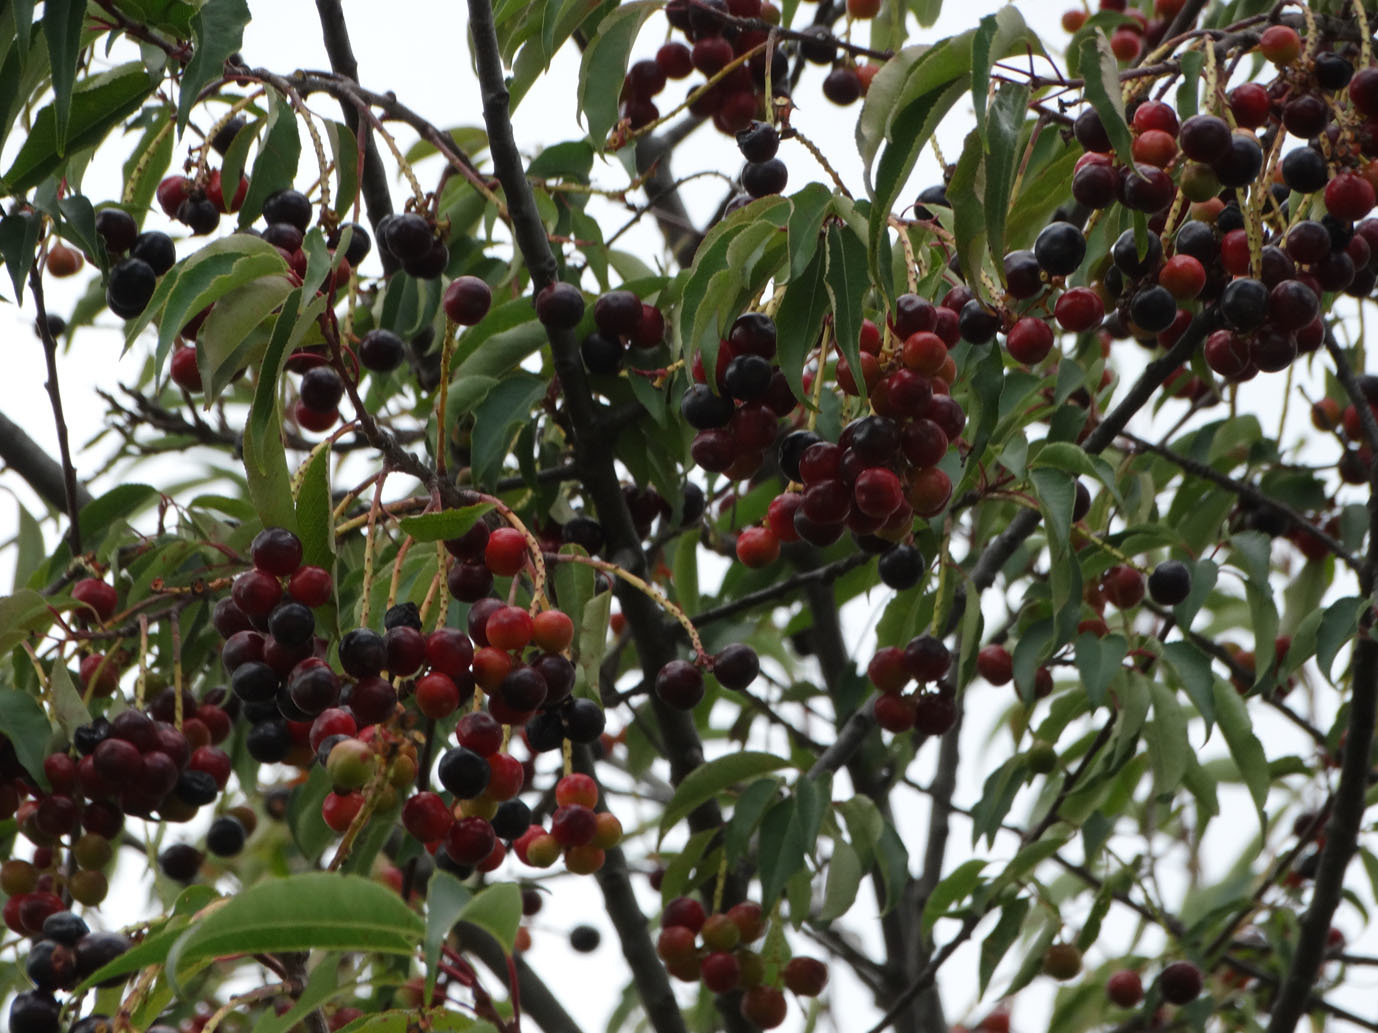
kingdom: Plantae
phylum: Tracheophyta
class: Magnoliopsida
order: Rosales
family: Rosaceae
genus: Prunus
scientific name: Prunus serotina
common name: Black cherry
